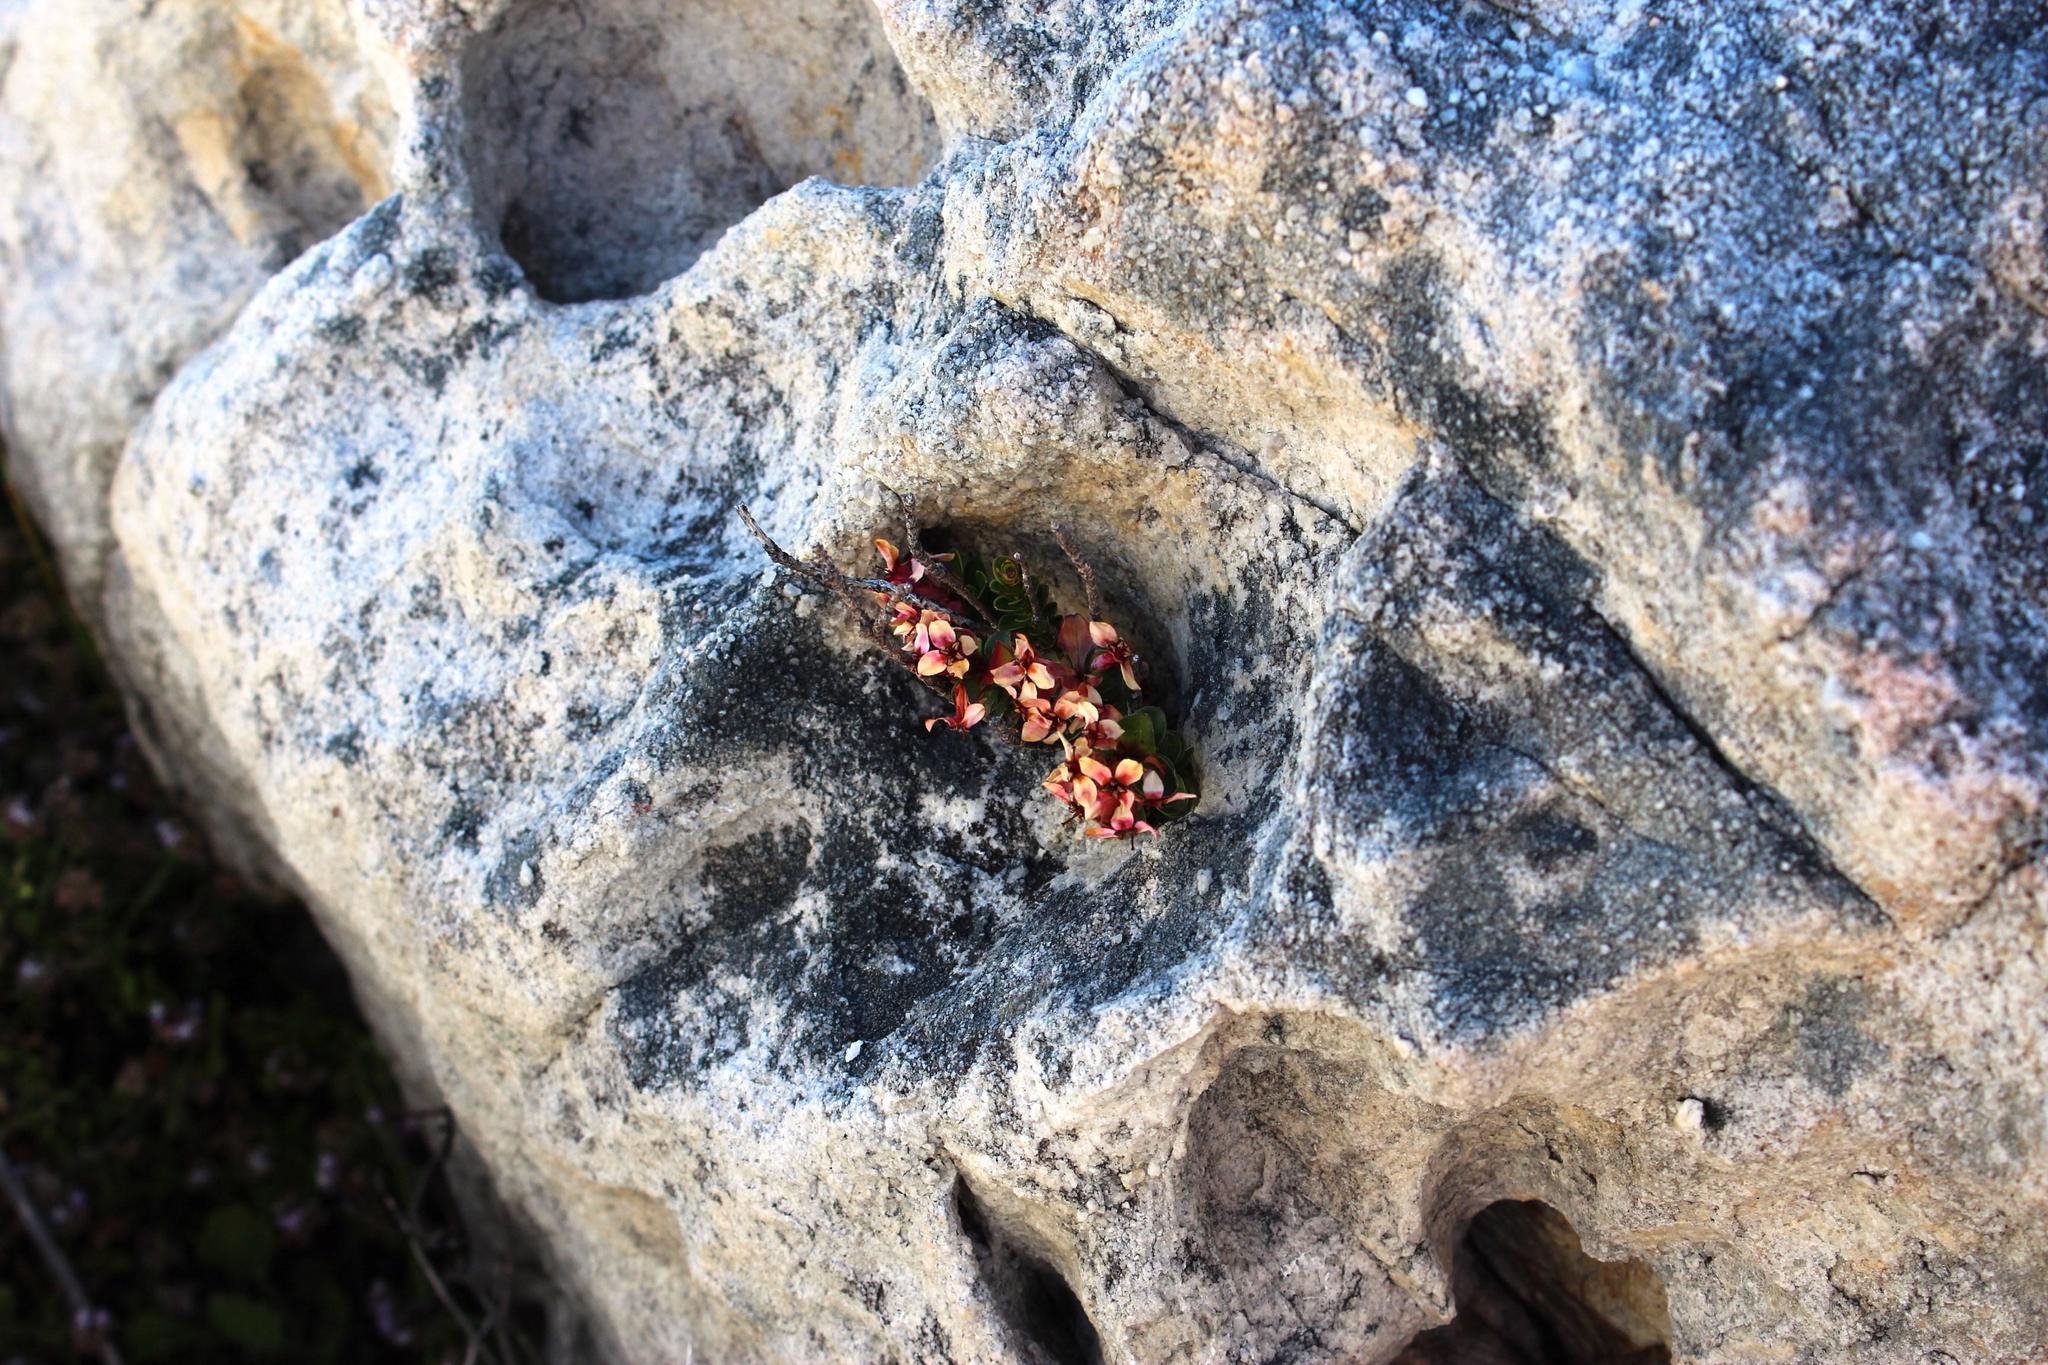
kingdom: Plantae
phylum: Tracheophyta
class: Magnoliopsida
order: Myrtales
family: Penaeaceae
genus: Sonderothamnus
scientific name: Sonderothamnus petraeus
